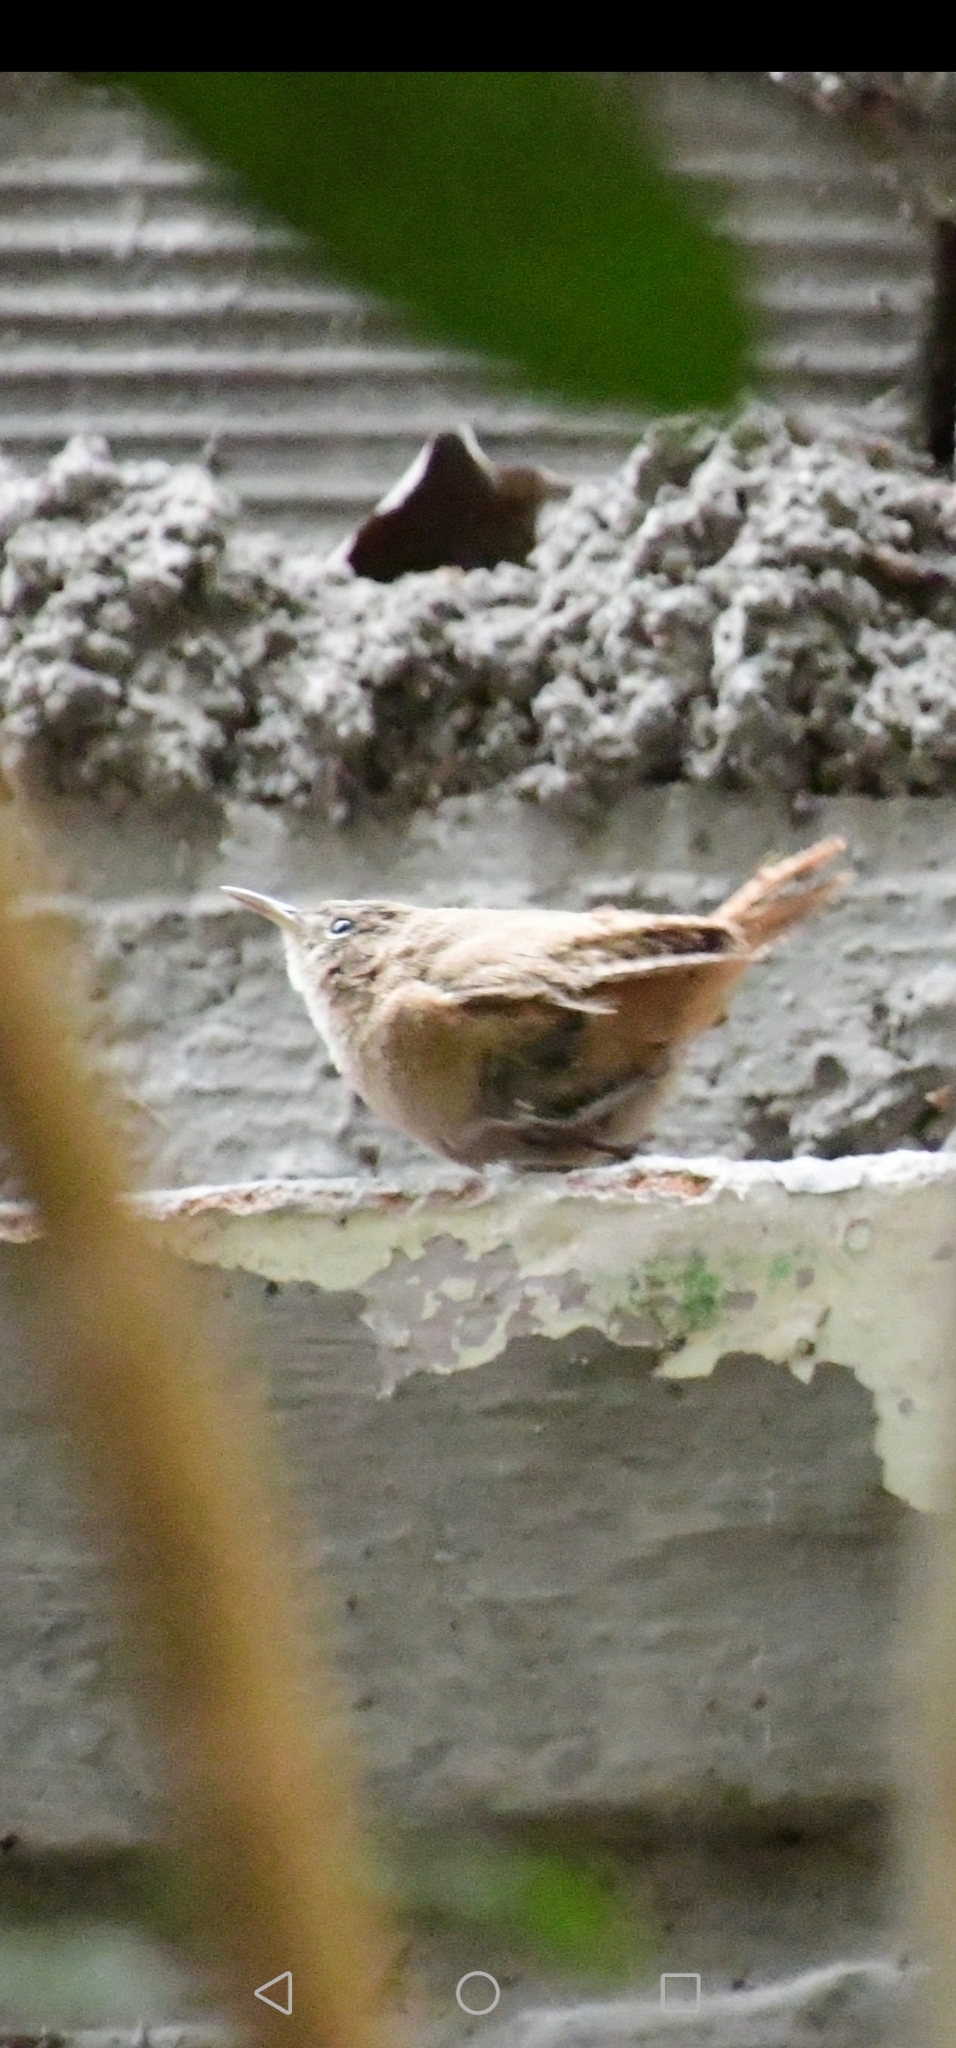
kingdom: Animalia
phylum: Chordata
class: Aves
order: Passeriformes
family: Troglodytidae
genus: Troglodytes
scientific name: Troglodytes aedon
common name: House wren
